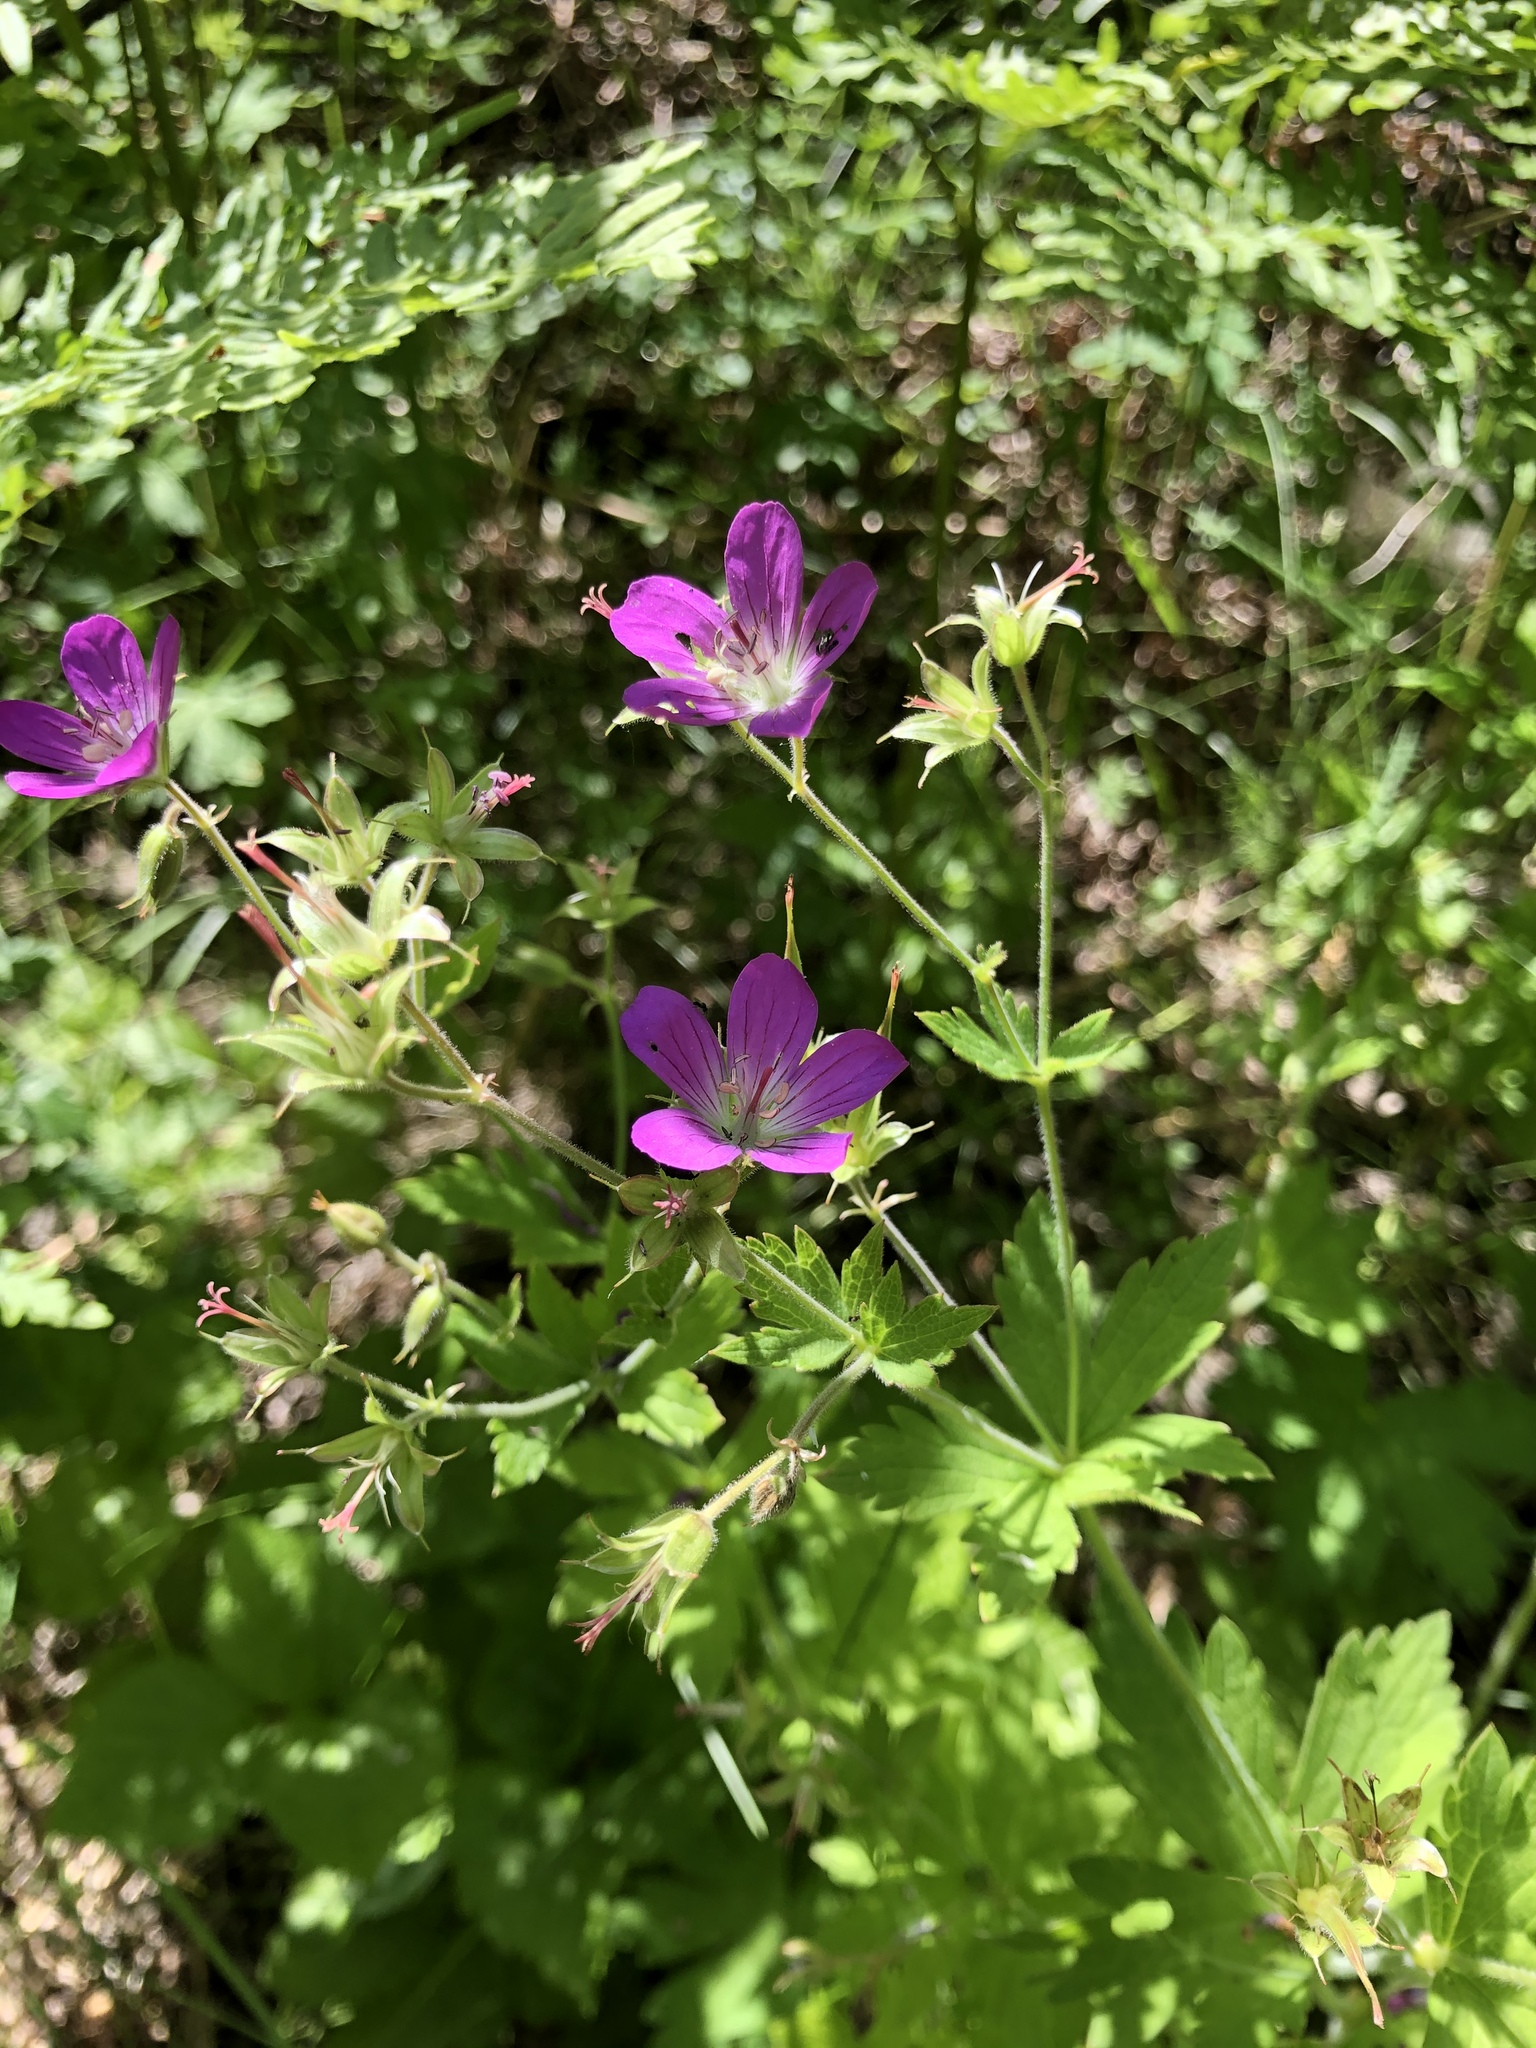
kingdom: Plantae
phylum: Tracheophyta
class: Magnoliopsida
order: Geraniales
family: Geraniaceae
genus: Geranium
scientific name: Geranium sylvaticum
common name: Wood crane's-bill
